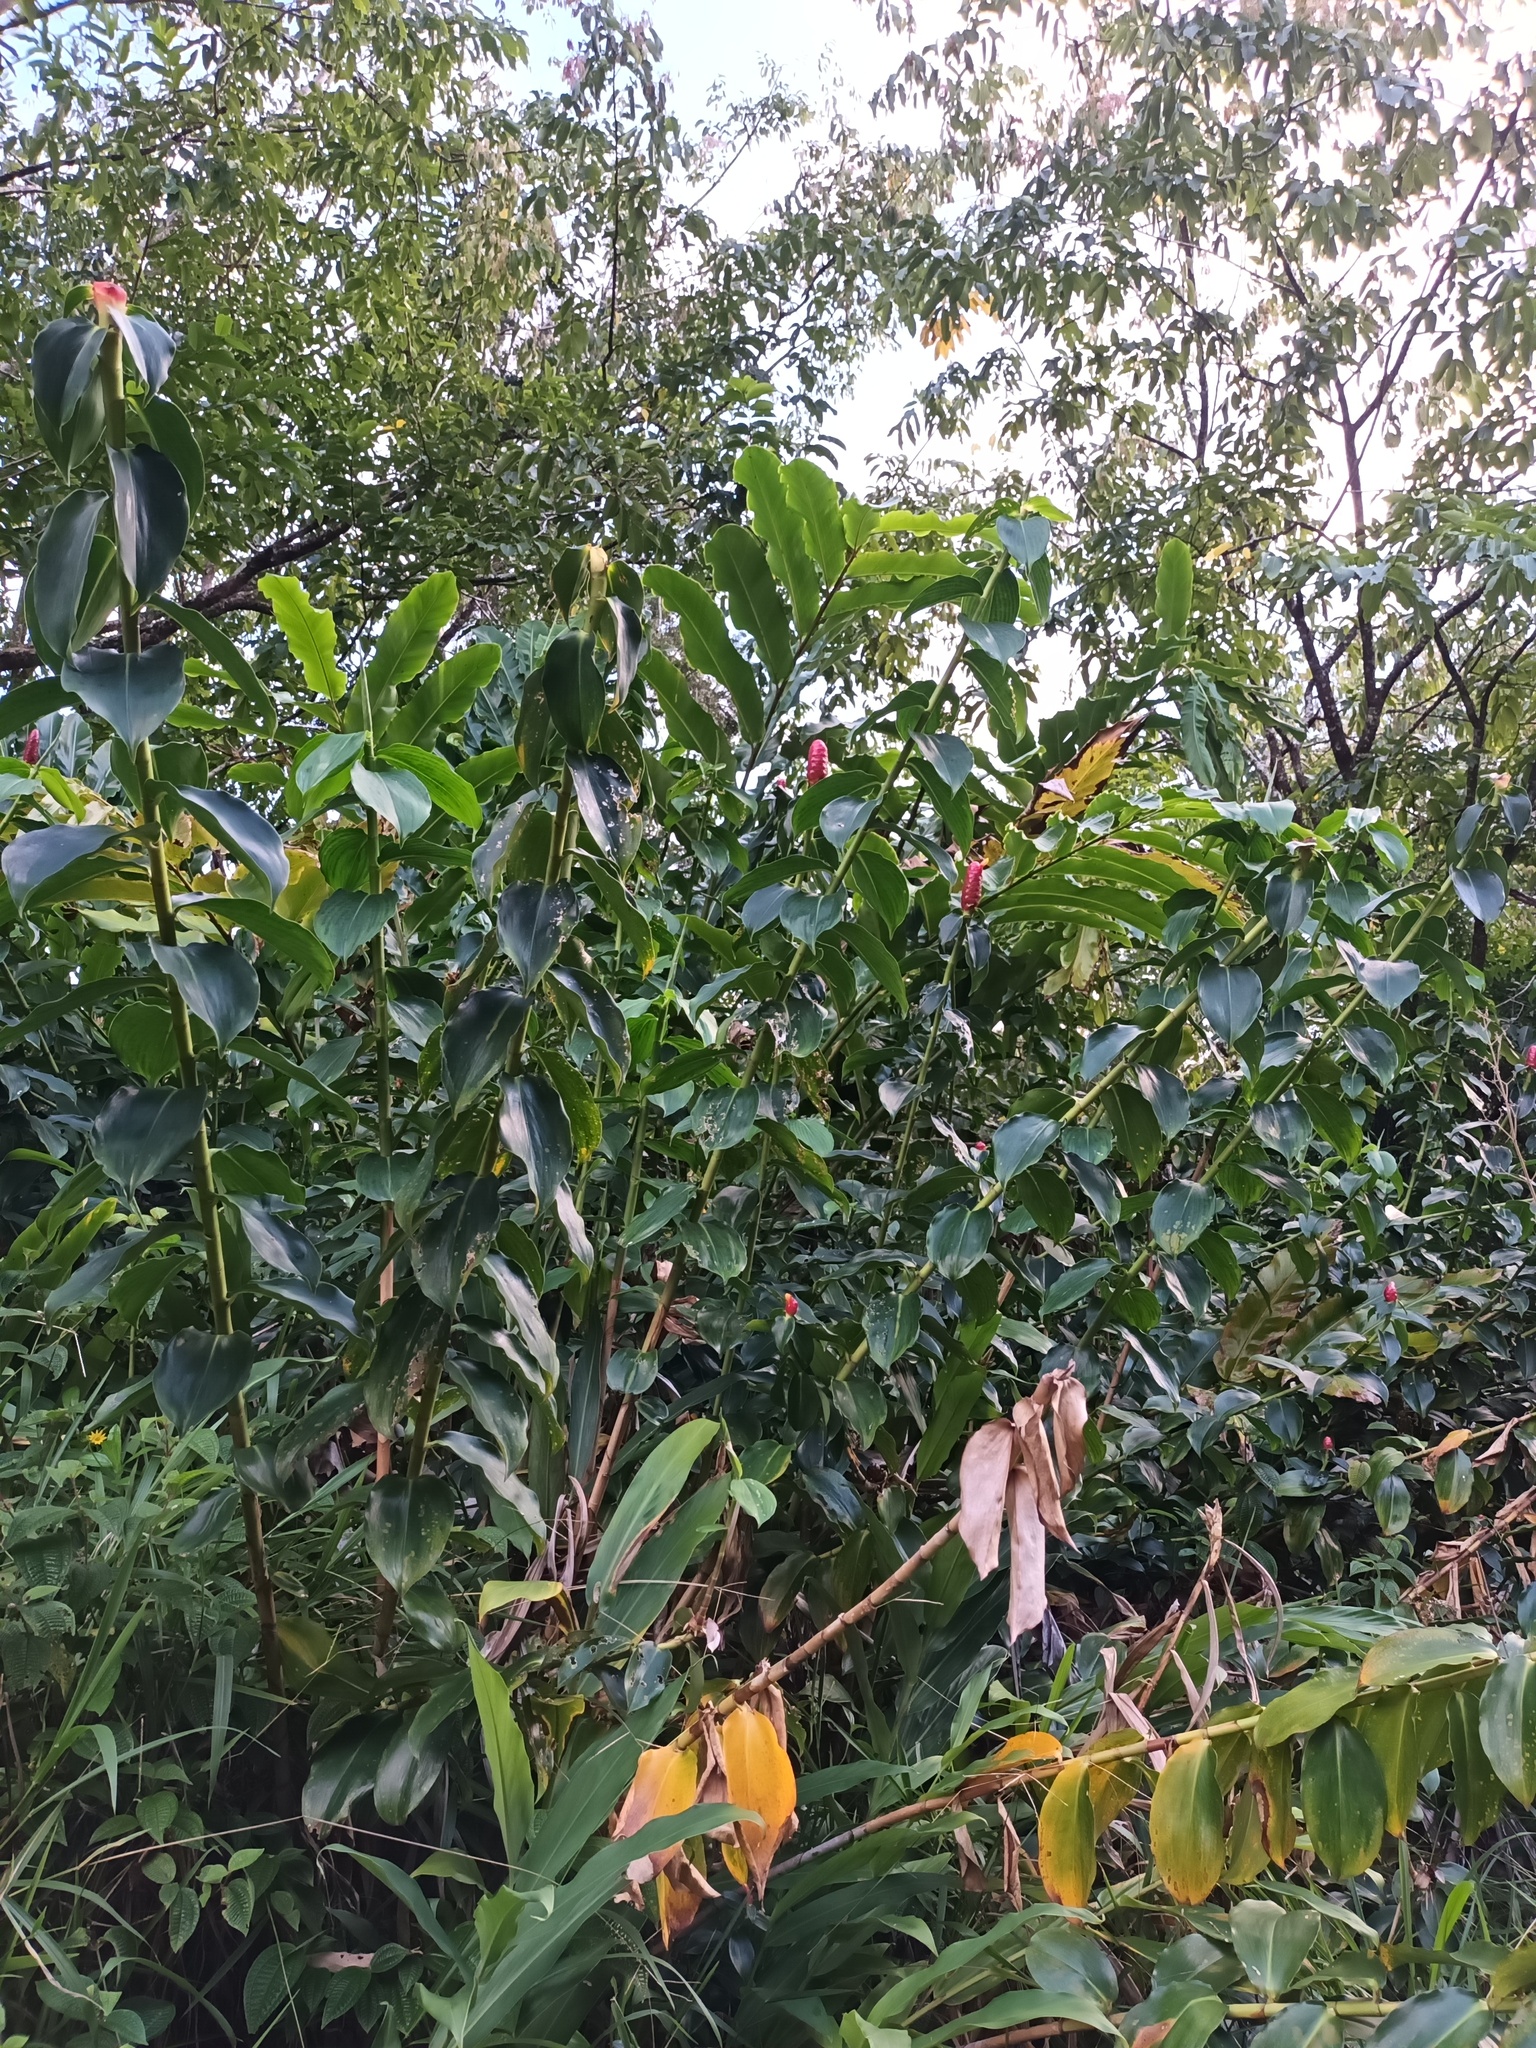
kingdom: Plantae
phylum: Tracheophyta
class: Liliopsida
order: Zingiberales
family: Costaceae
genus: Costus
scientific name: Costus woodsonii
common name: Scarlet spiral-ginger
